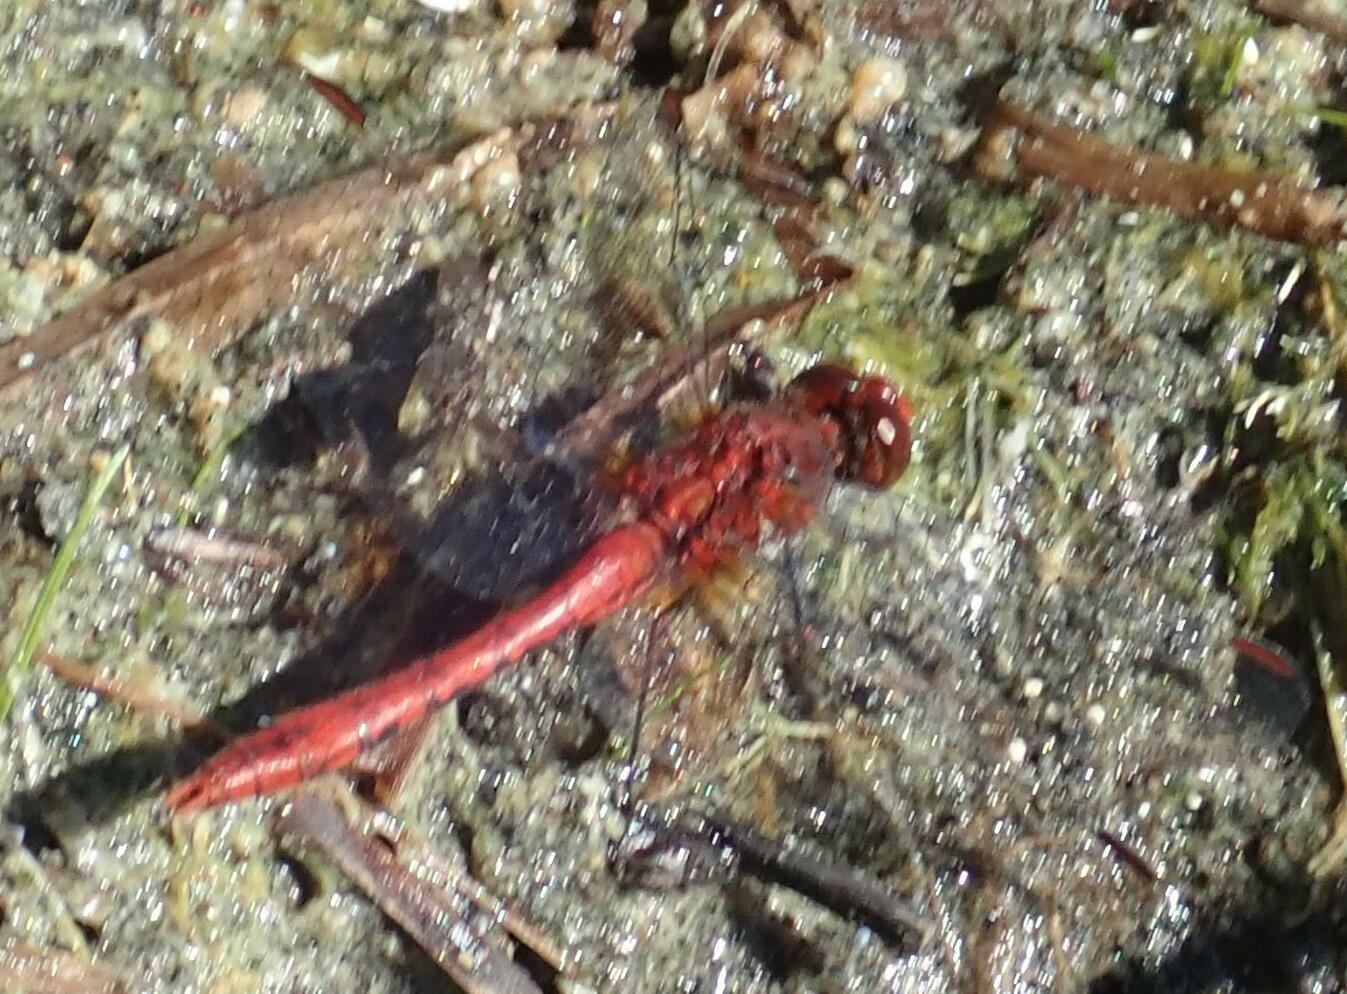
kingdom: Animalia
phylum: Arthropoda
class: Insecta
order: Odonata
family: Libellulidae
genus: Diplacodes
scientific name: Diplacodes bipunctata
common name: Red percher dragonfly
